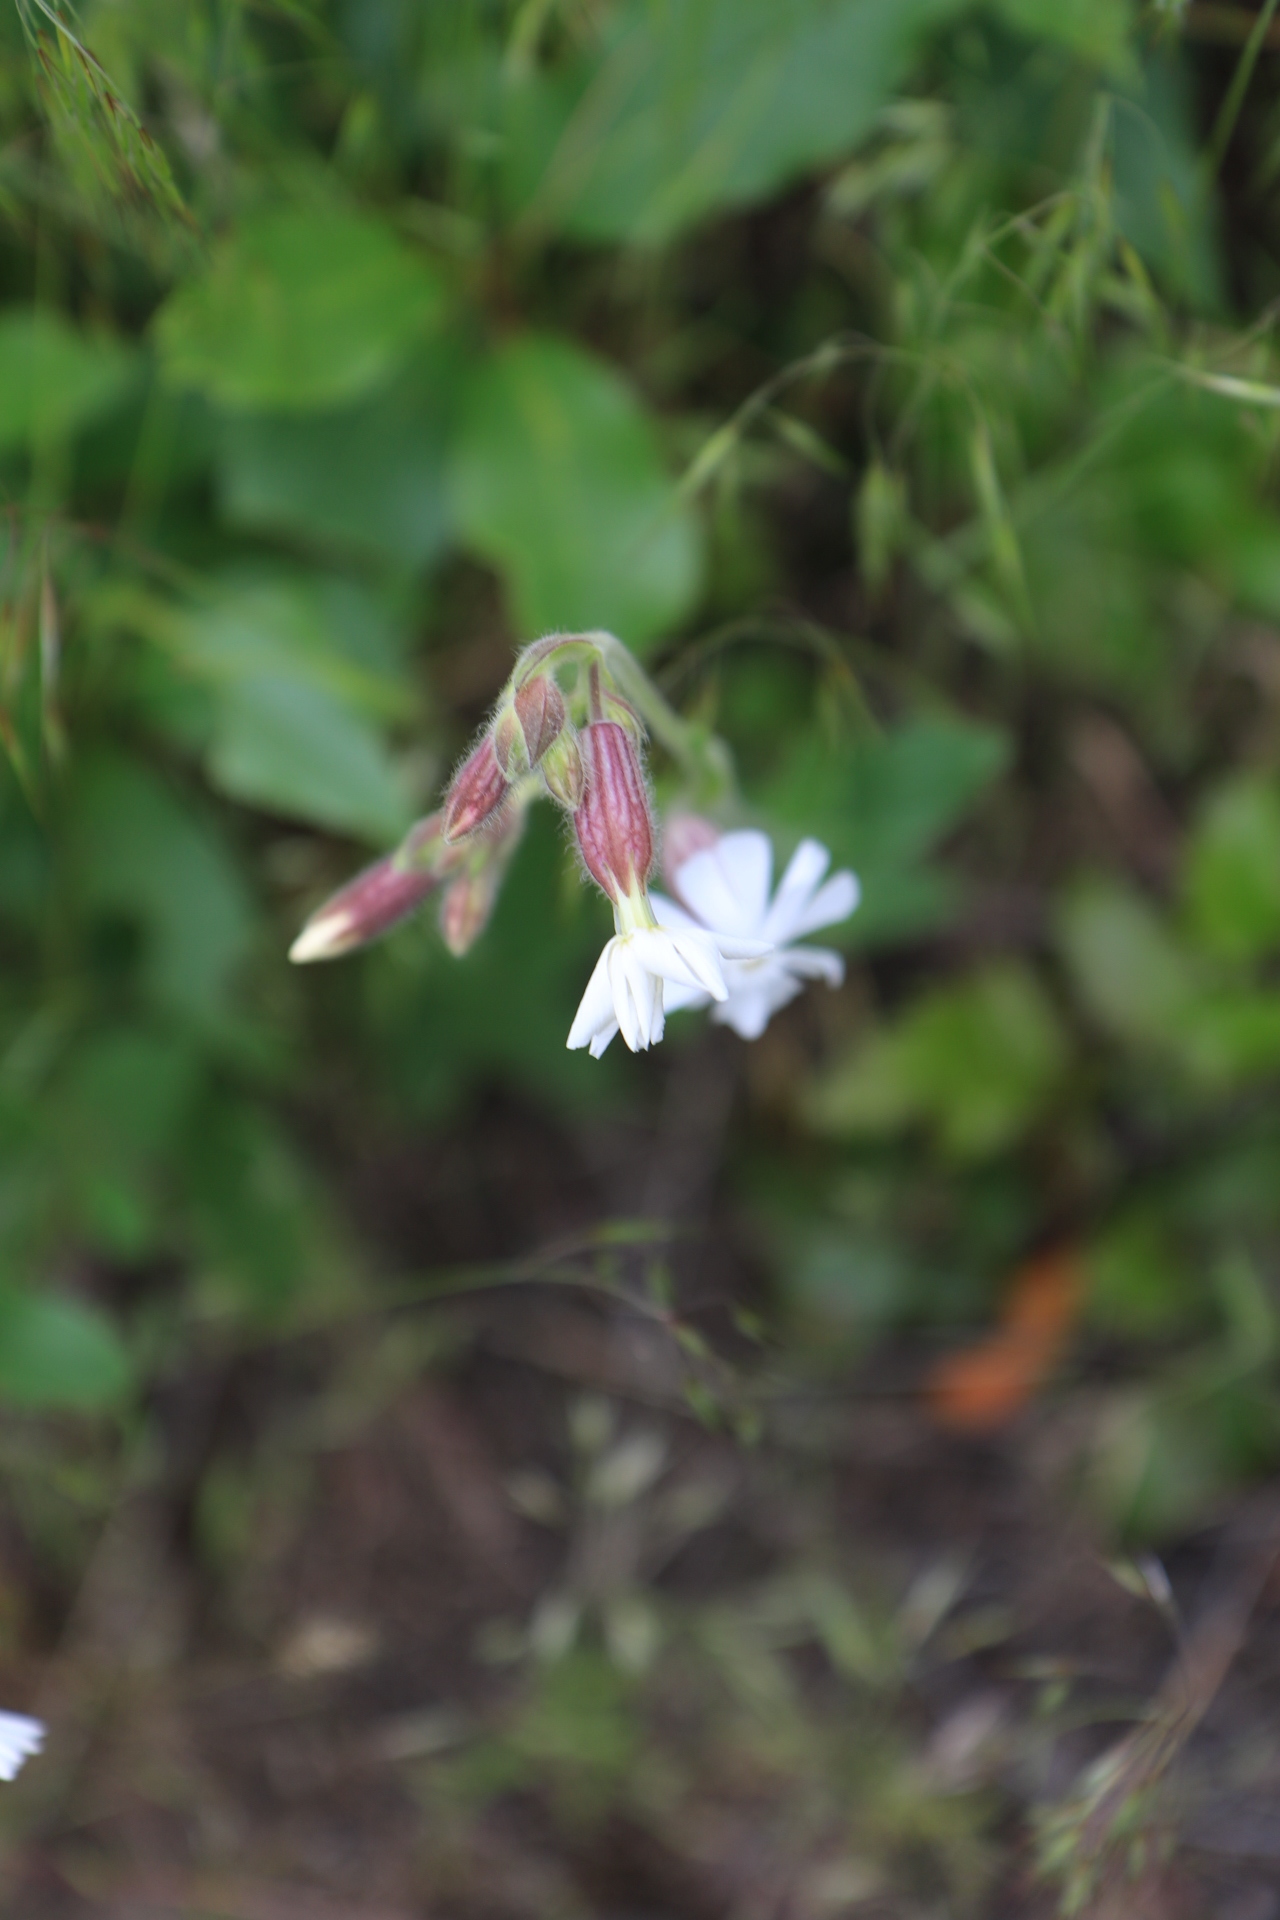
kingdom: Plantae
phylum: Tracheophyta
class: Magnoliopsida
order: Caryophyllales
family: Caryophyllaceae
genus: Silene
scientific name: Silene latifolia
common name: White campion
